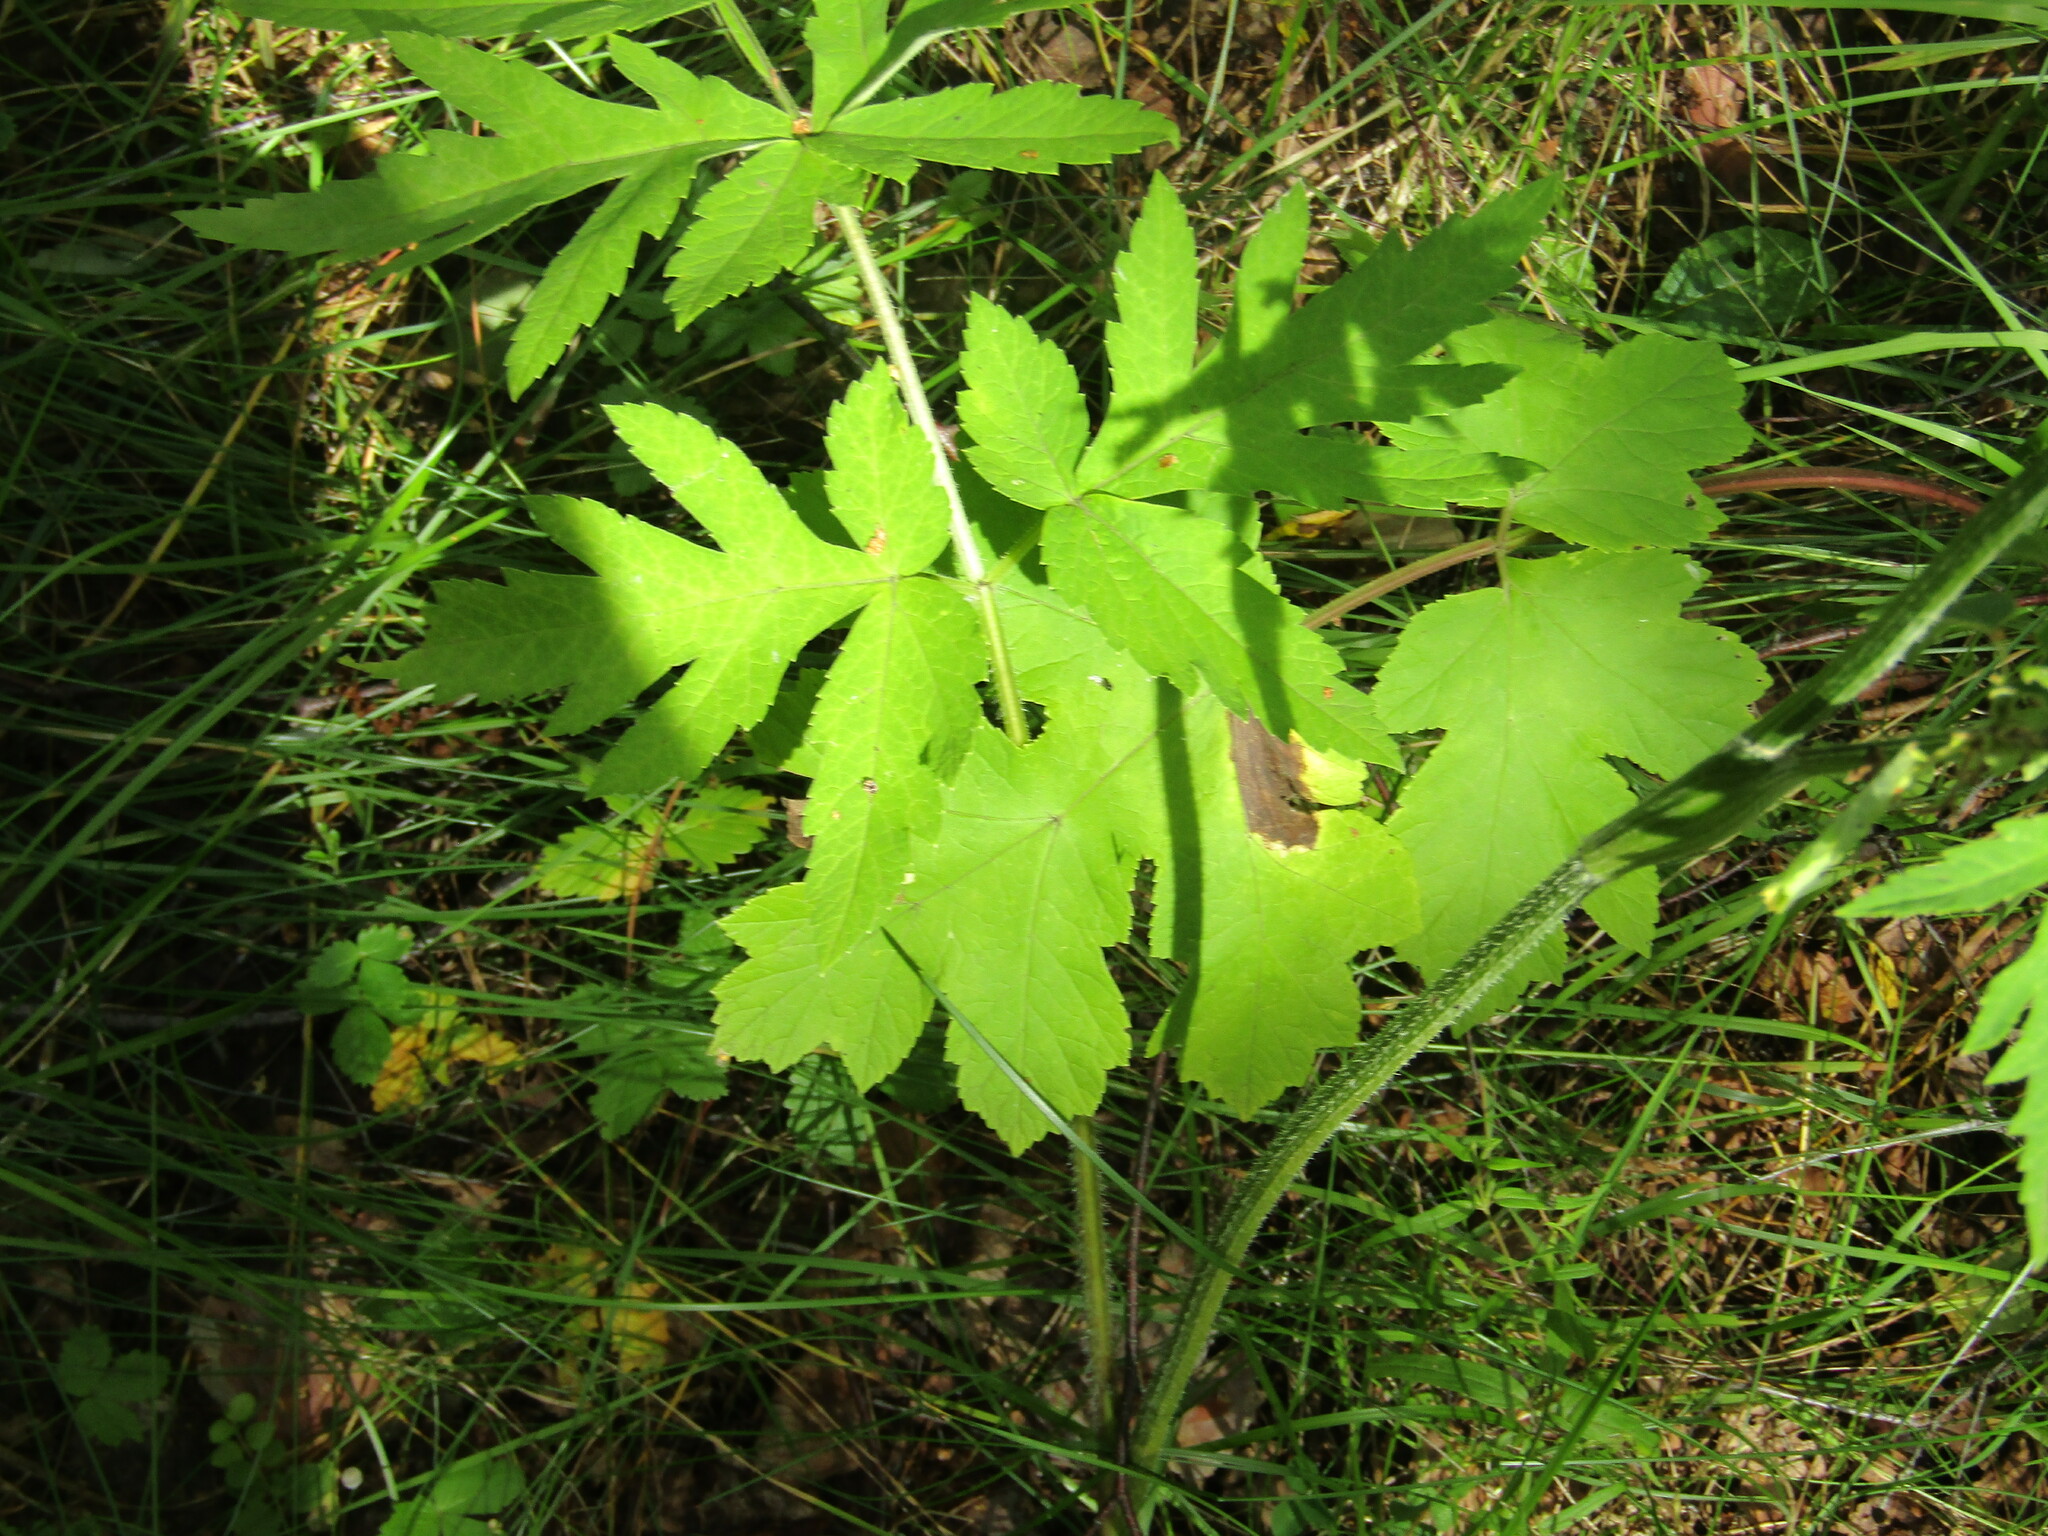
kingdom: Plantae
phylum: Tracheophyta
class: Magnoliopsida
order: Apiales
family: Apiaceae
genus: Heracleum
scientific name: Heracleum sphondylium
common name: Hogweed
